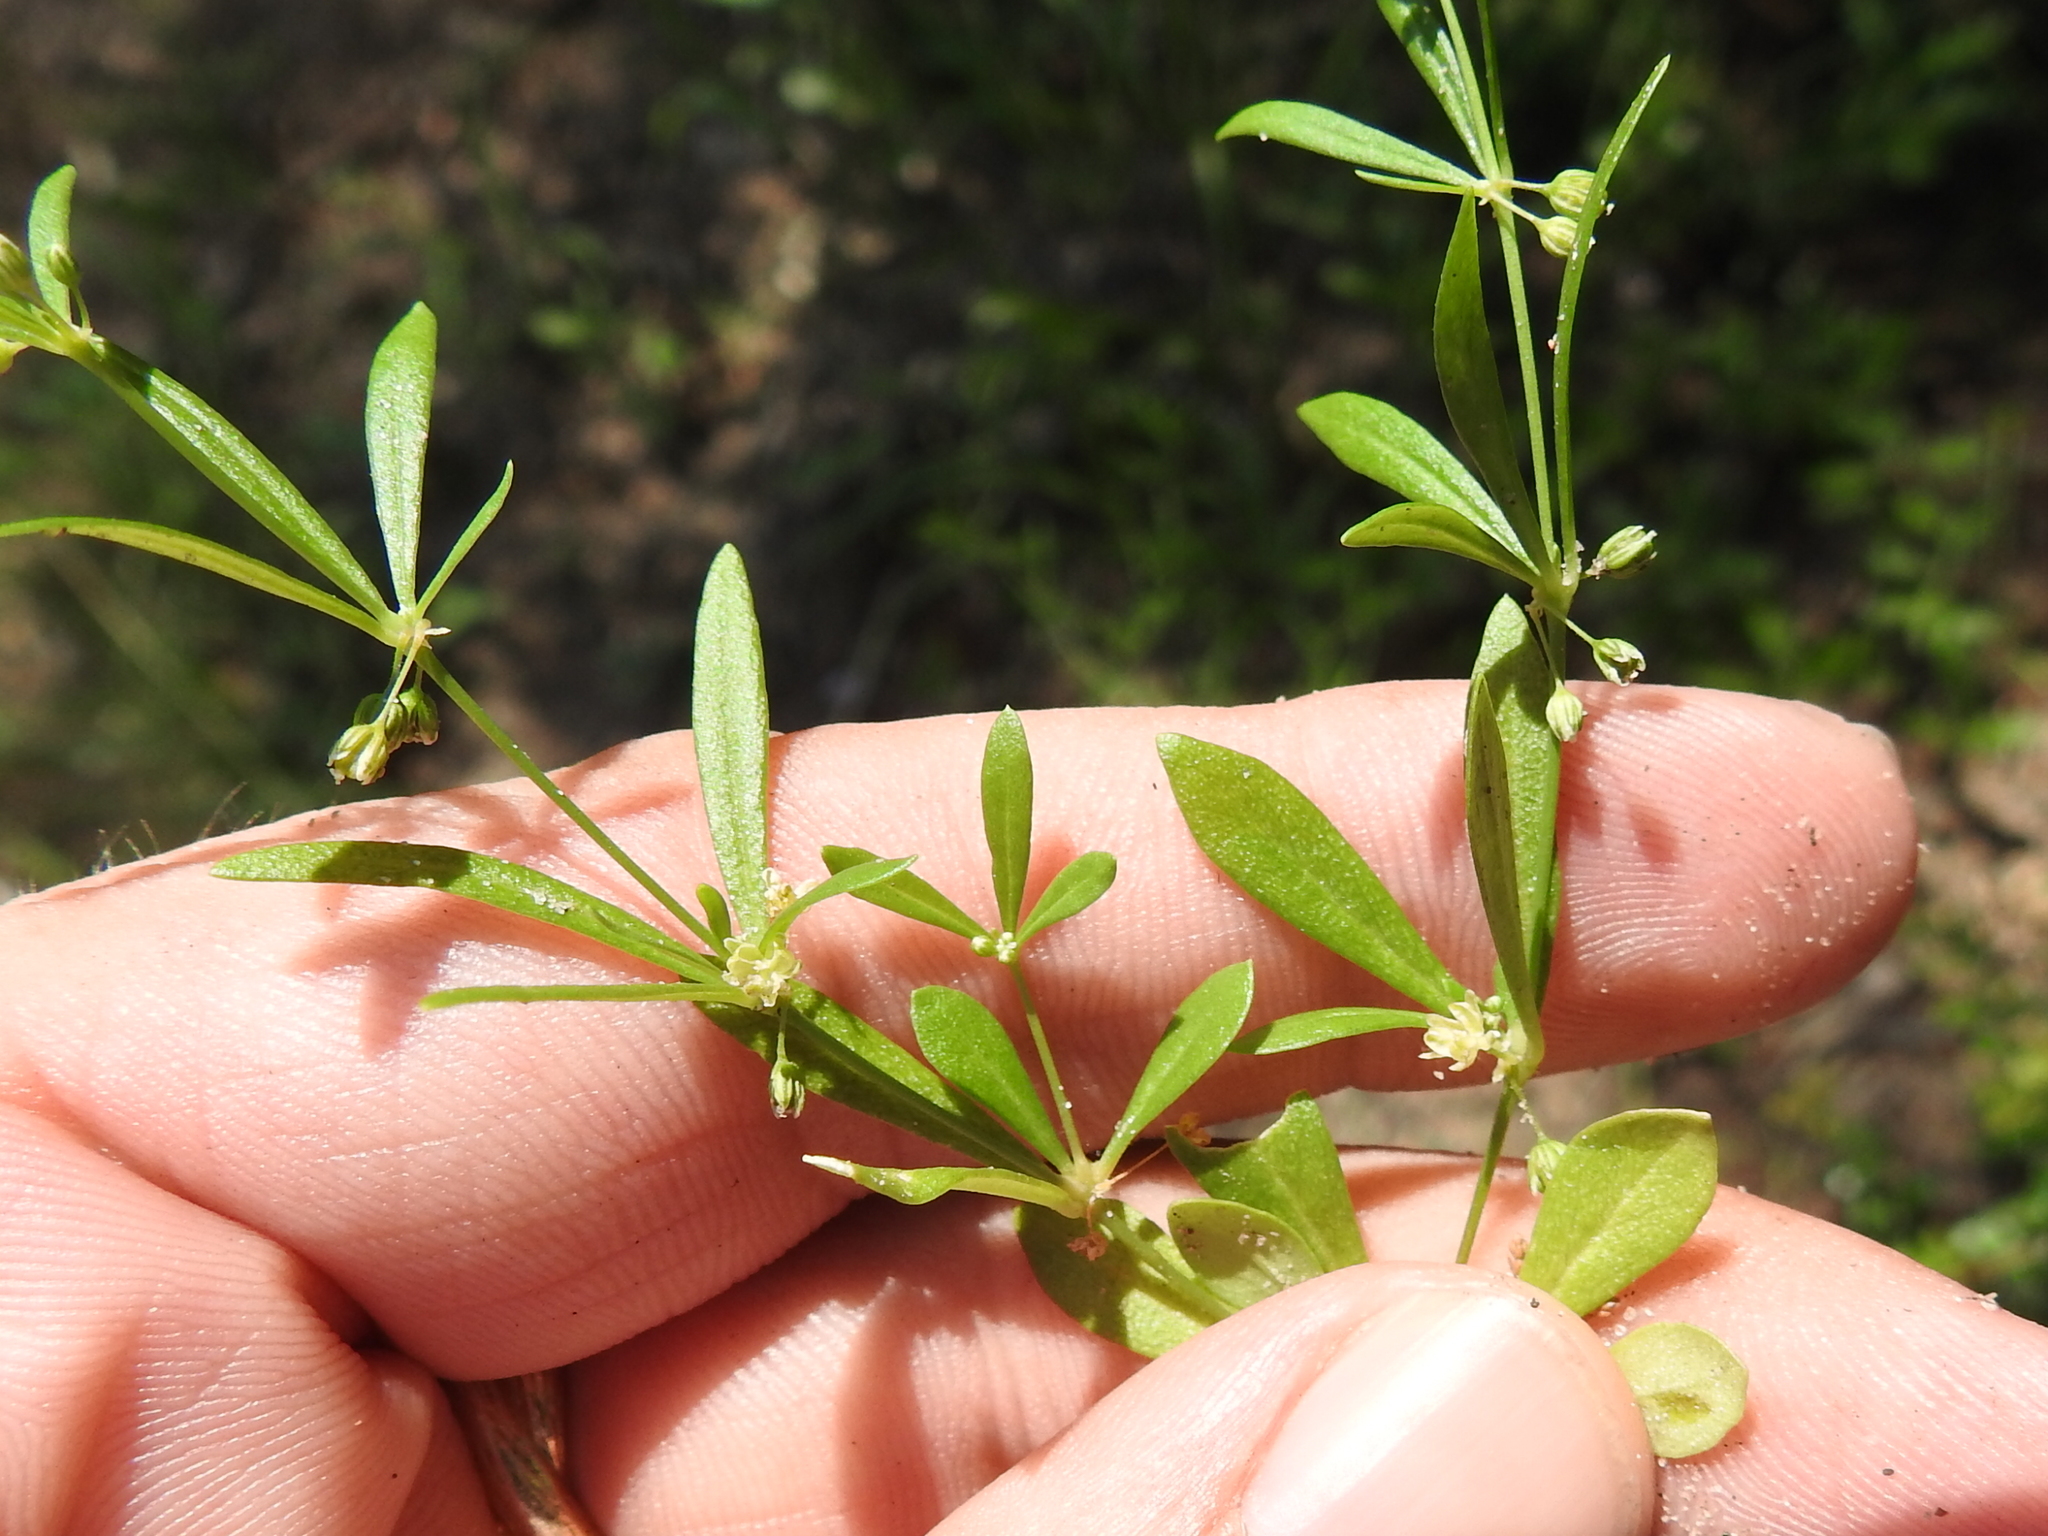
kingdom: Plantae
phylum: Tracheophyta
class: Magnoliopsida
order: Caryophyllales
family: Molluginaceae
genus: Mollugo
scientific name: Mollugo verticillata
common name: Green carpetweed
